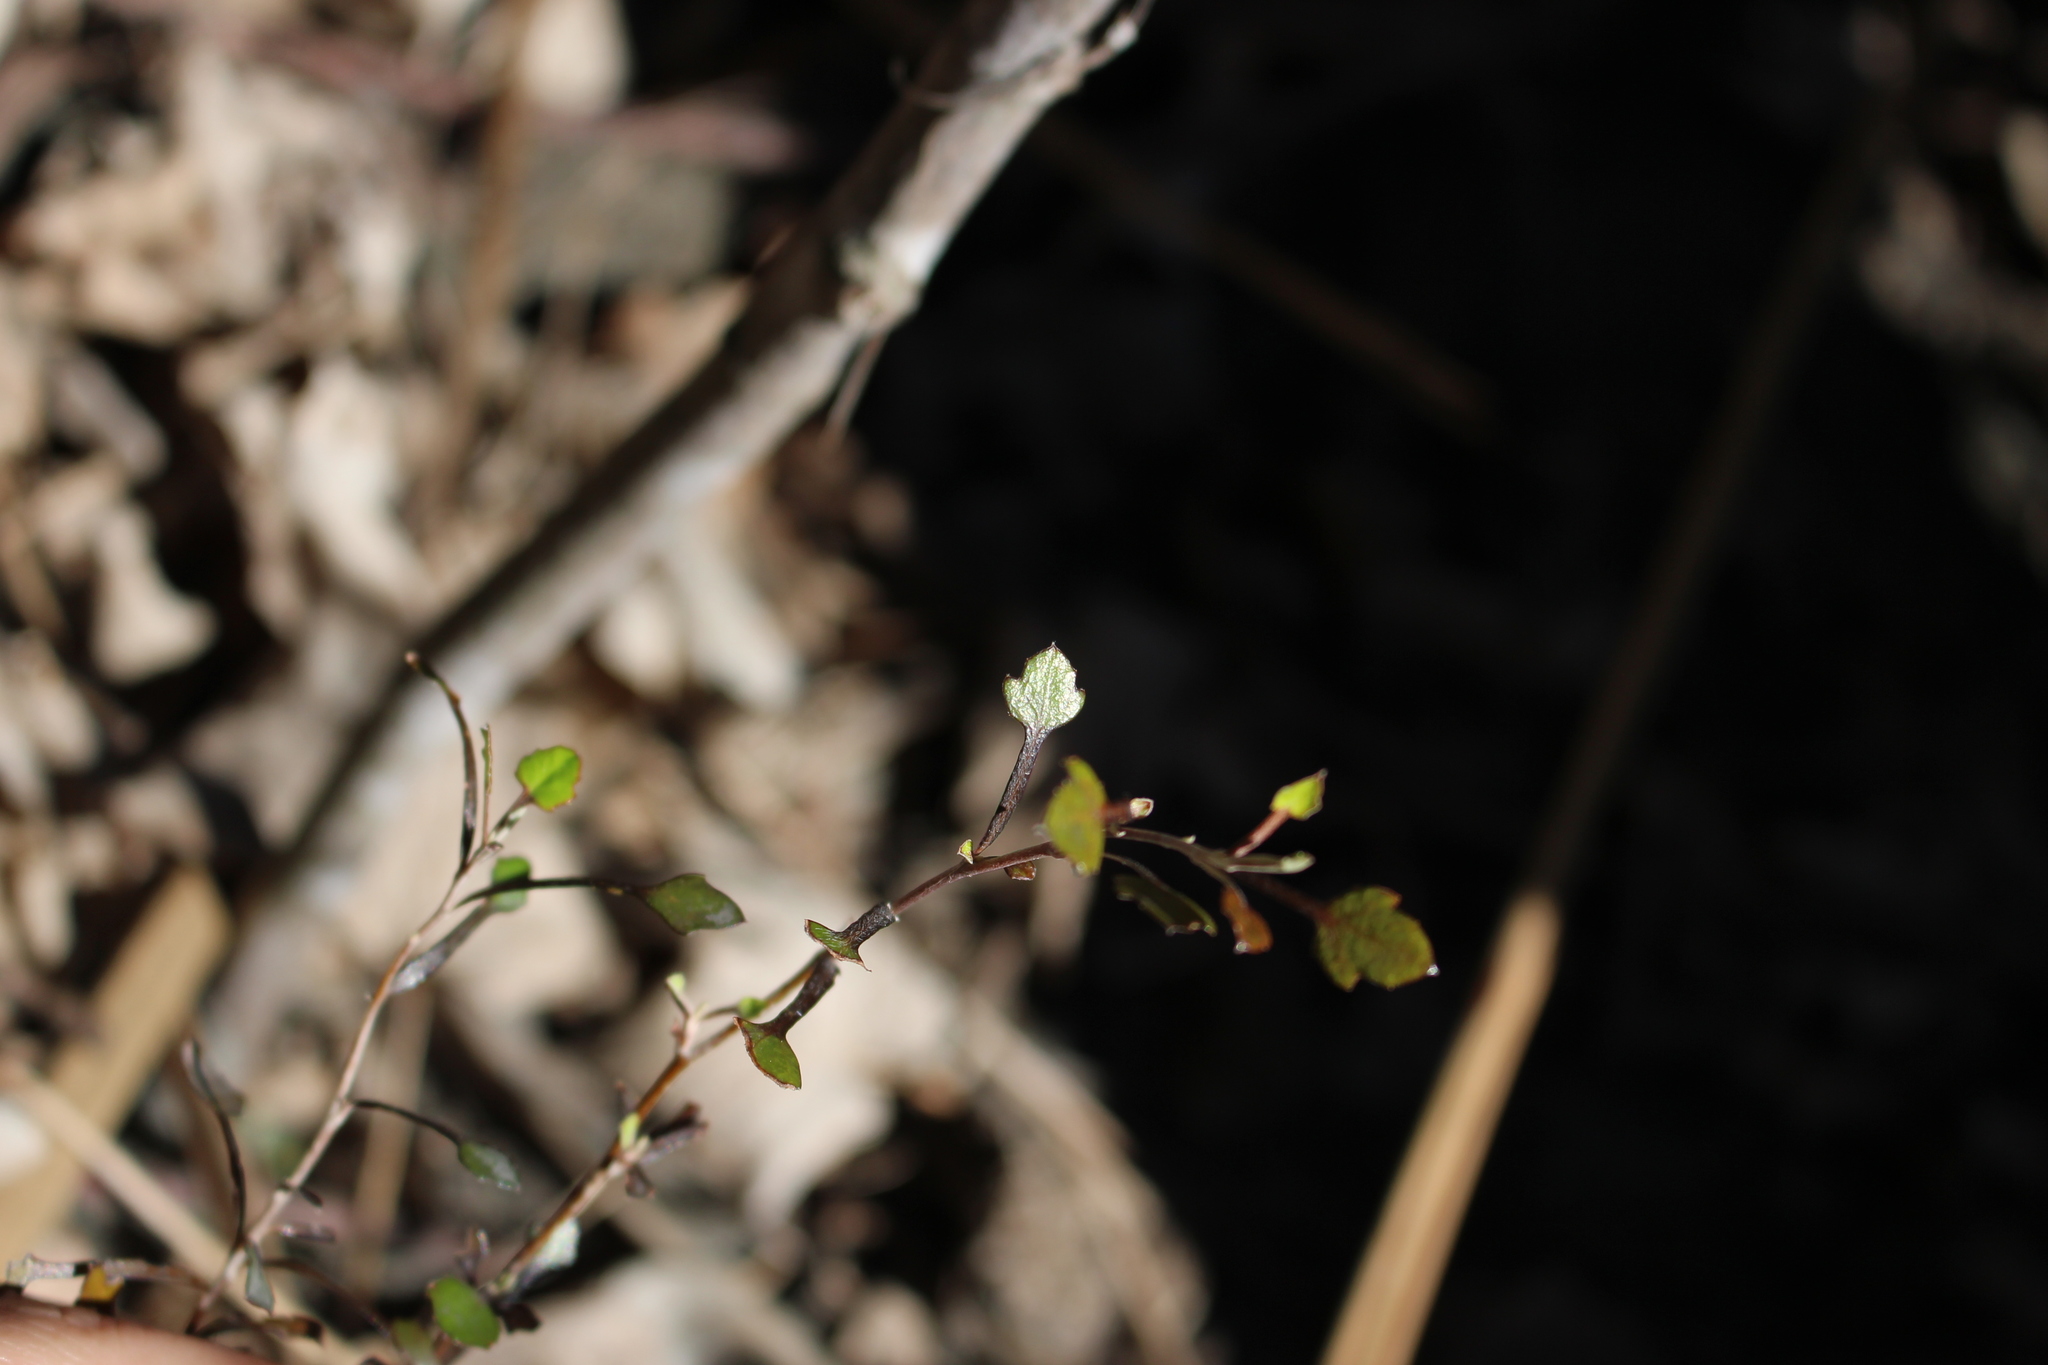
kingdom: Plantae
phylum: Tracheophyta
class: Magnoliopsida
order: Asterales
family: Argophyllaceae
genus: Corokia
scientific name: Corokia cotoneaster
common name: Wire nettingbush
